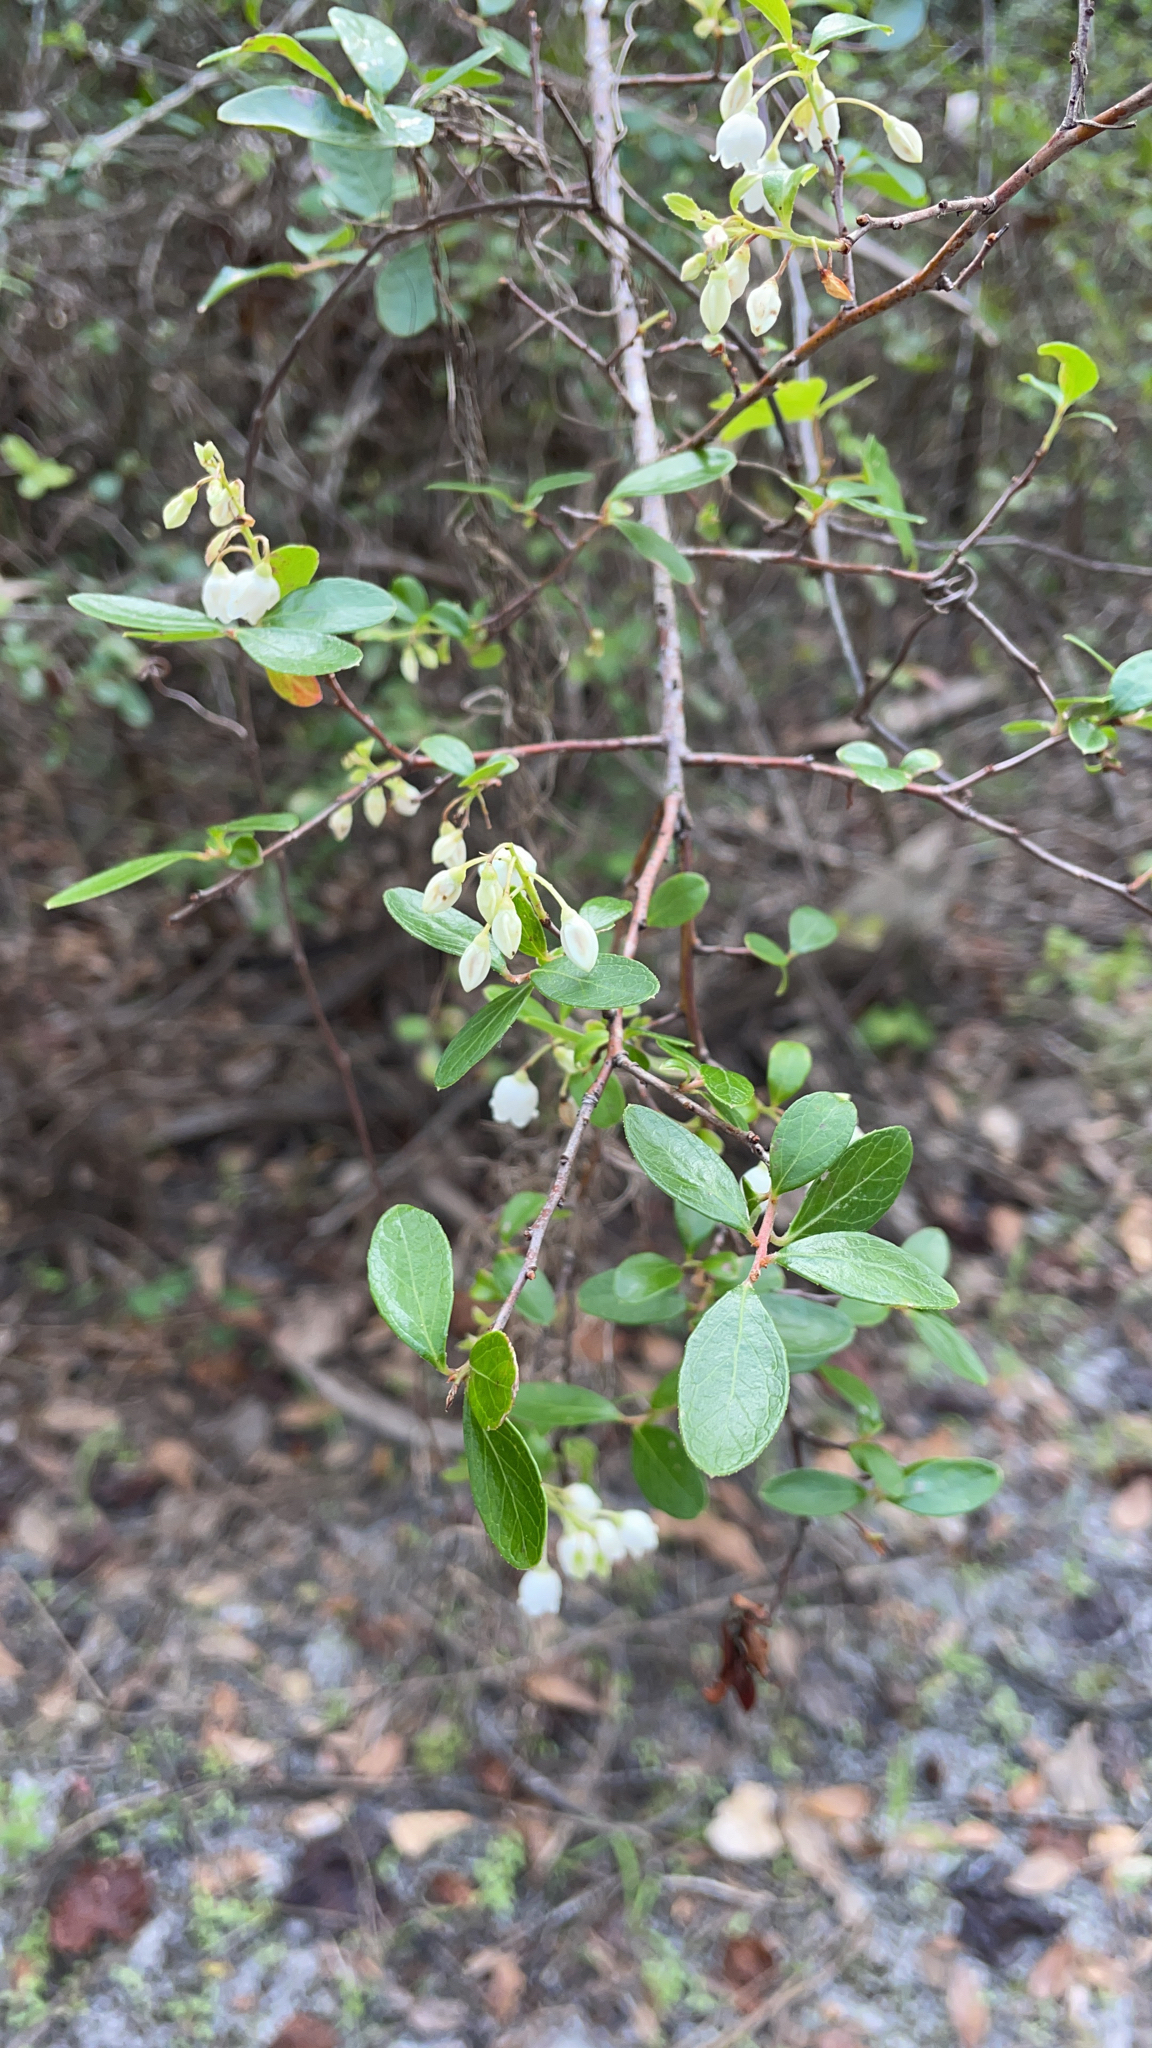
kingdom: Plantae
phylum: Tracheophyta
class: Magnoliopsida
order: Ericales
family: Ericaceae
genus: Vaccinium
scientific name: Vaccinium arboreum
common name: Farkleberry
